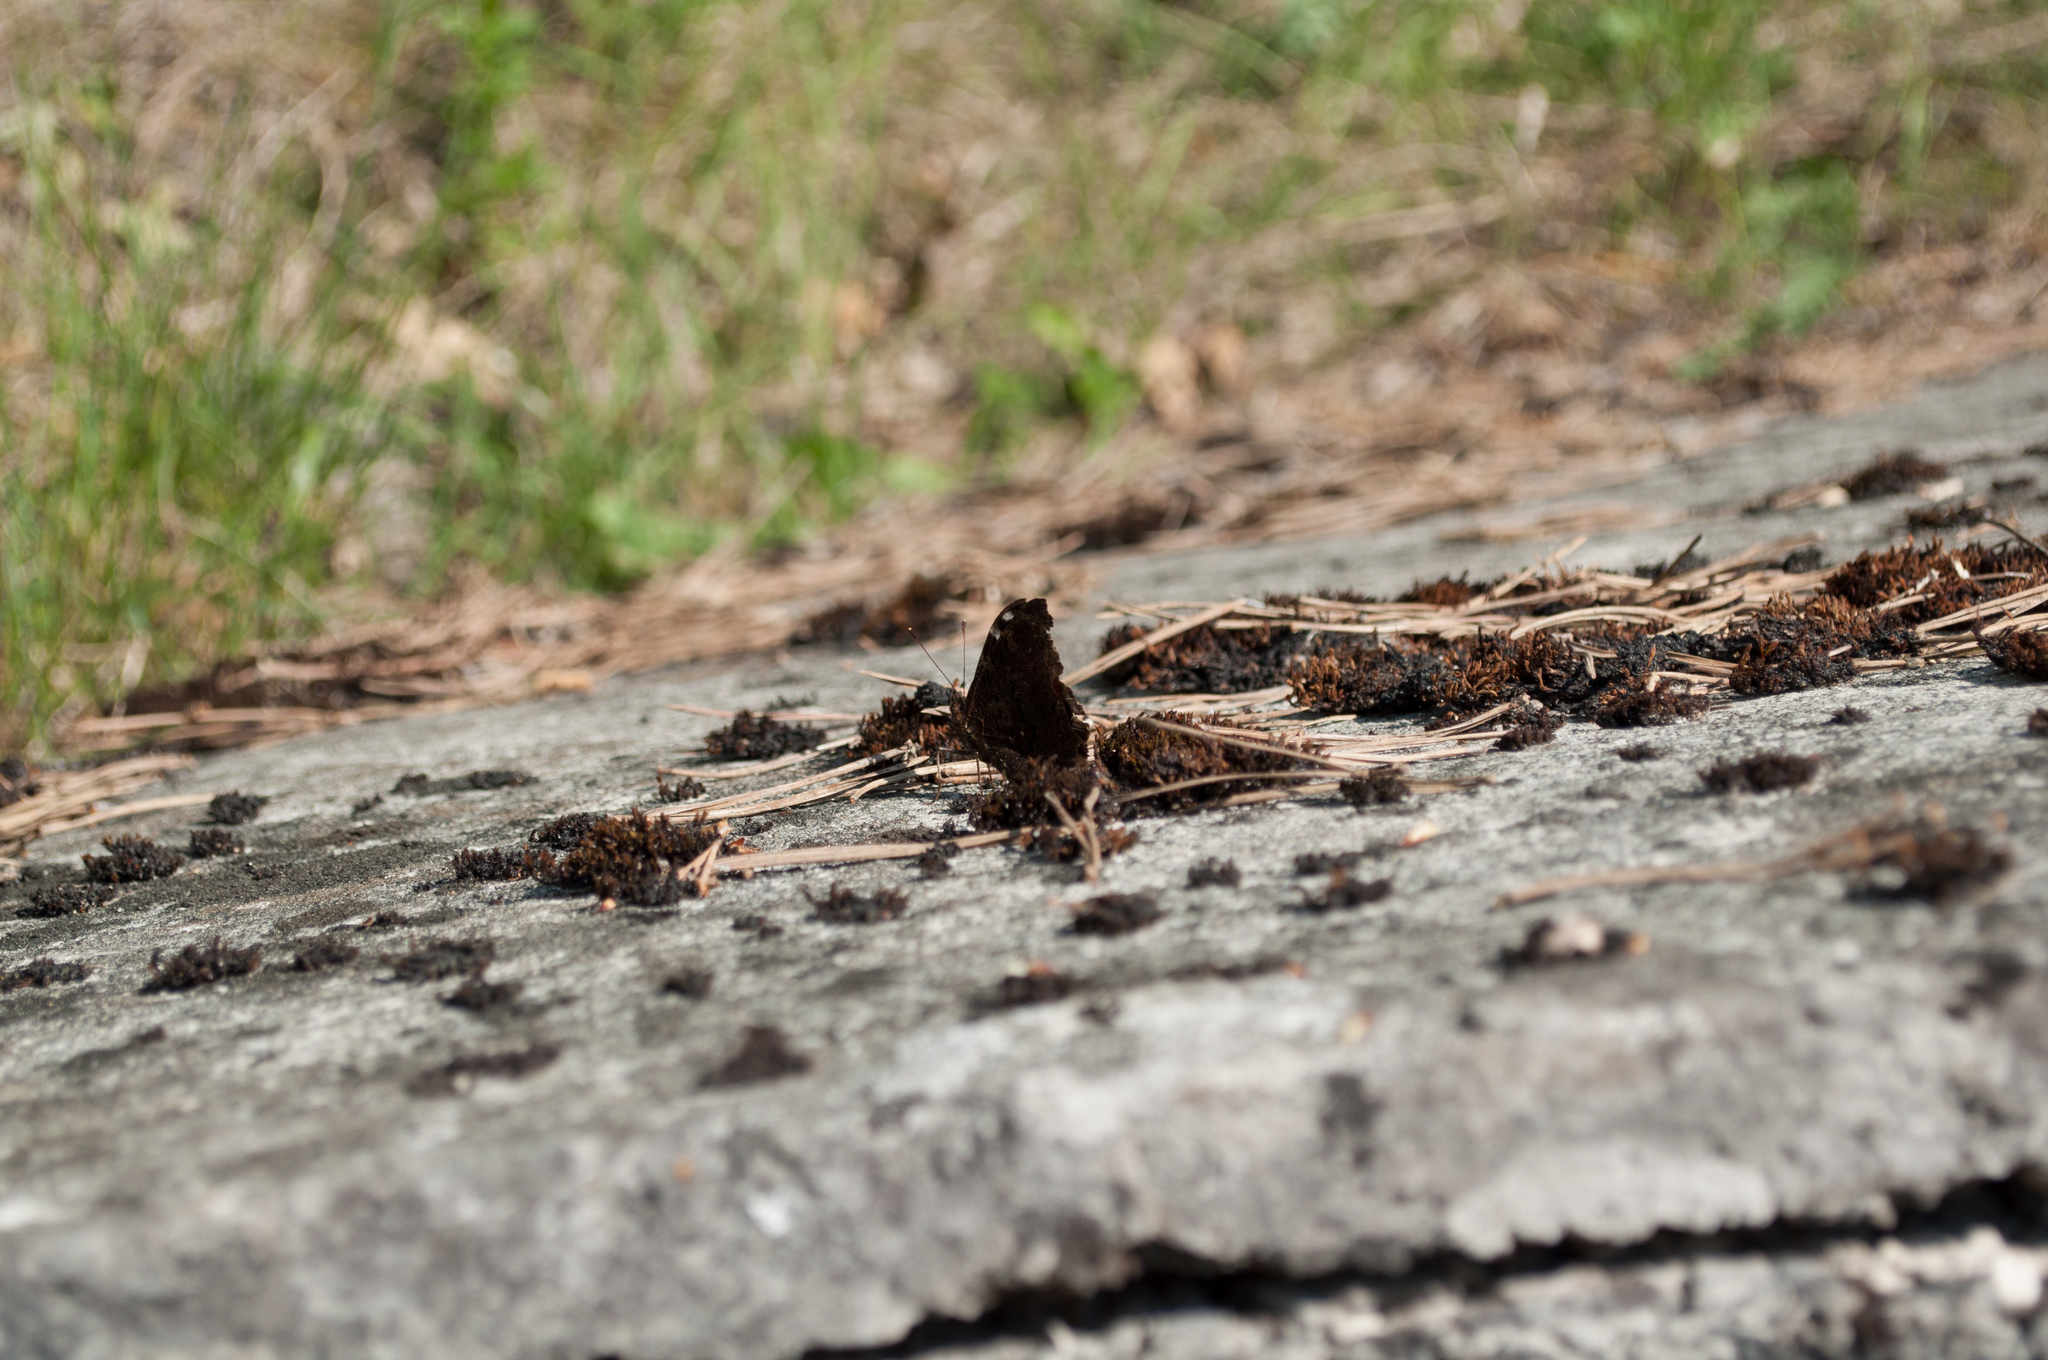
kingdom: Animalia
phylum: Arthropoda
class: Insecta
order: Lepidoptera
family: Nymphalidae
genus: Aglais
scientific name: Aglais io
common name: Peacock
